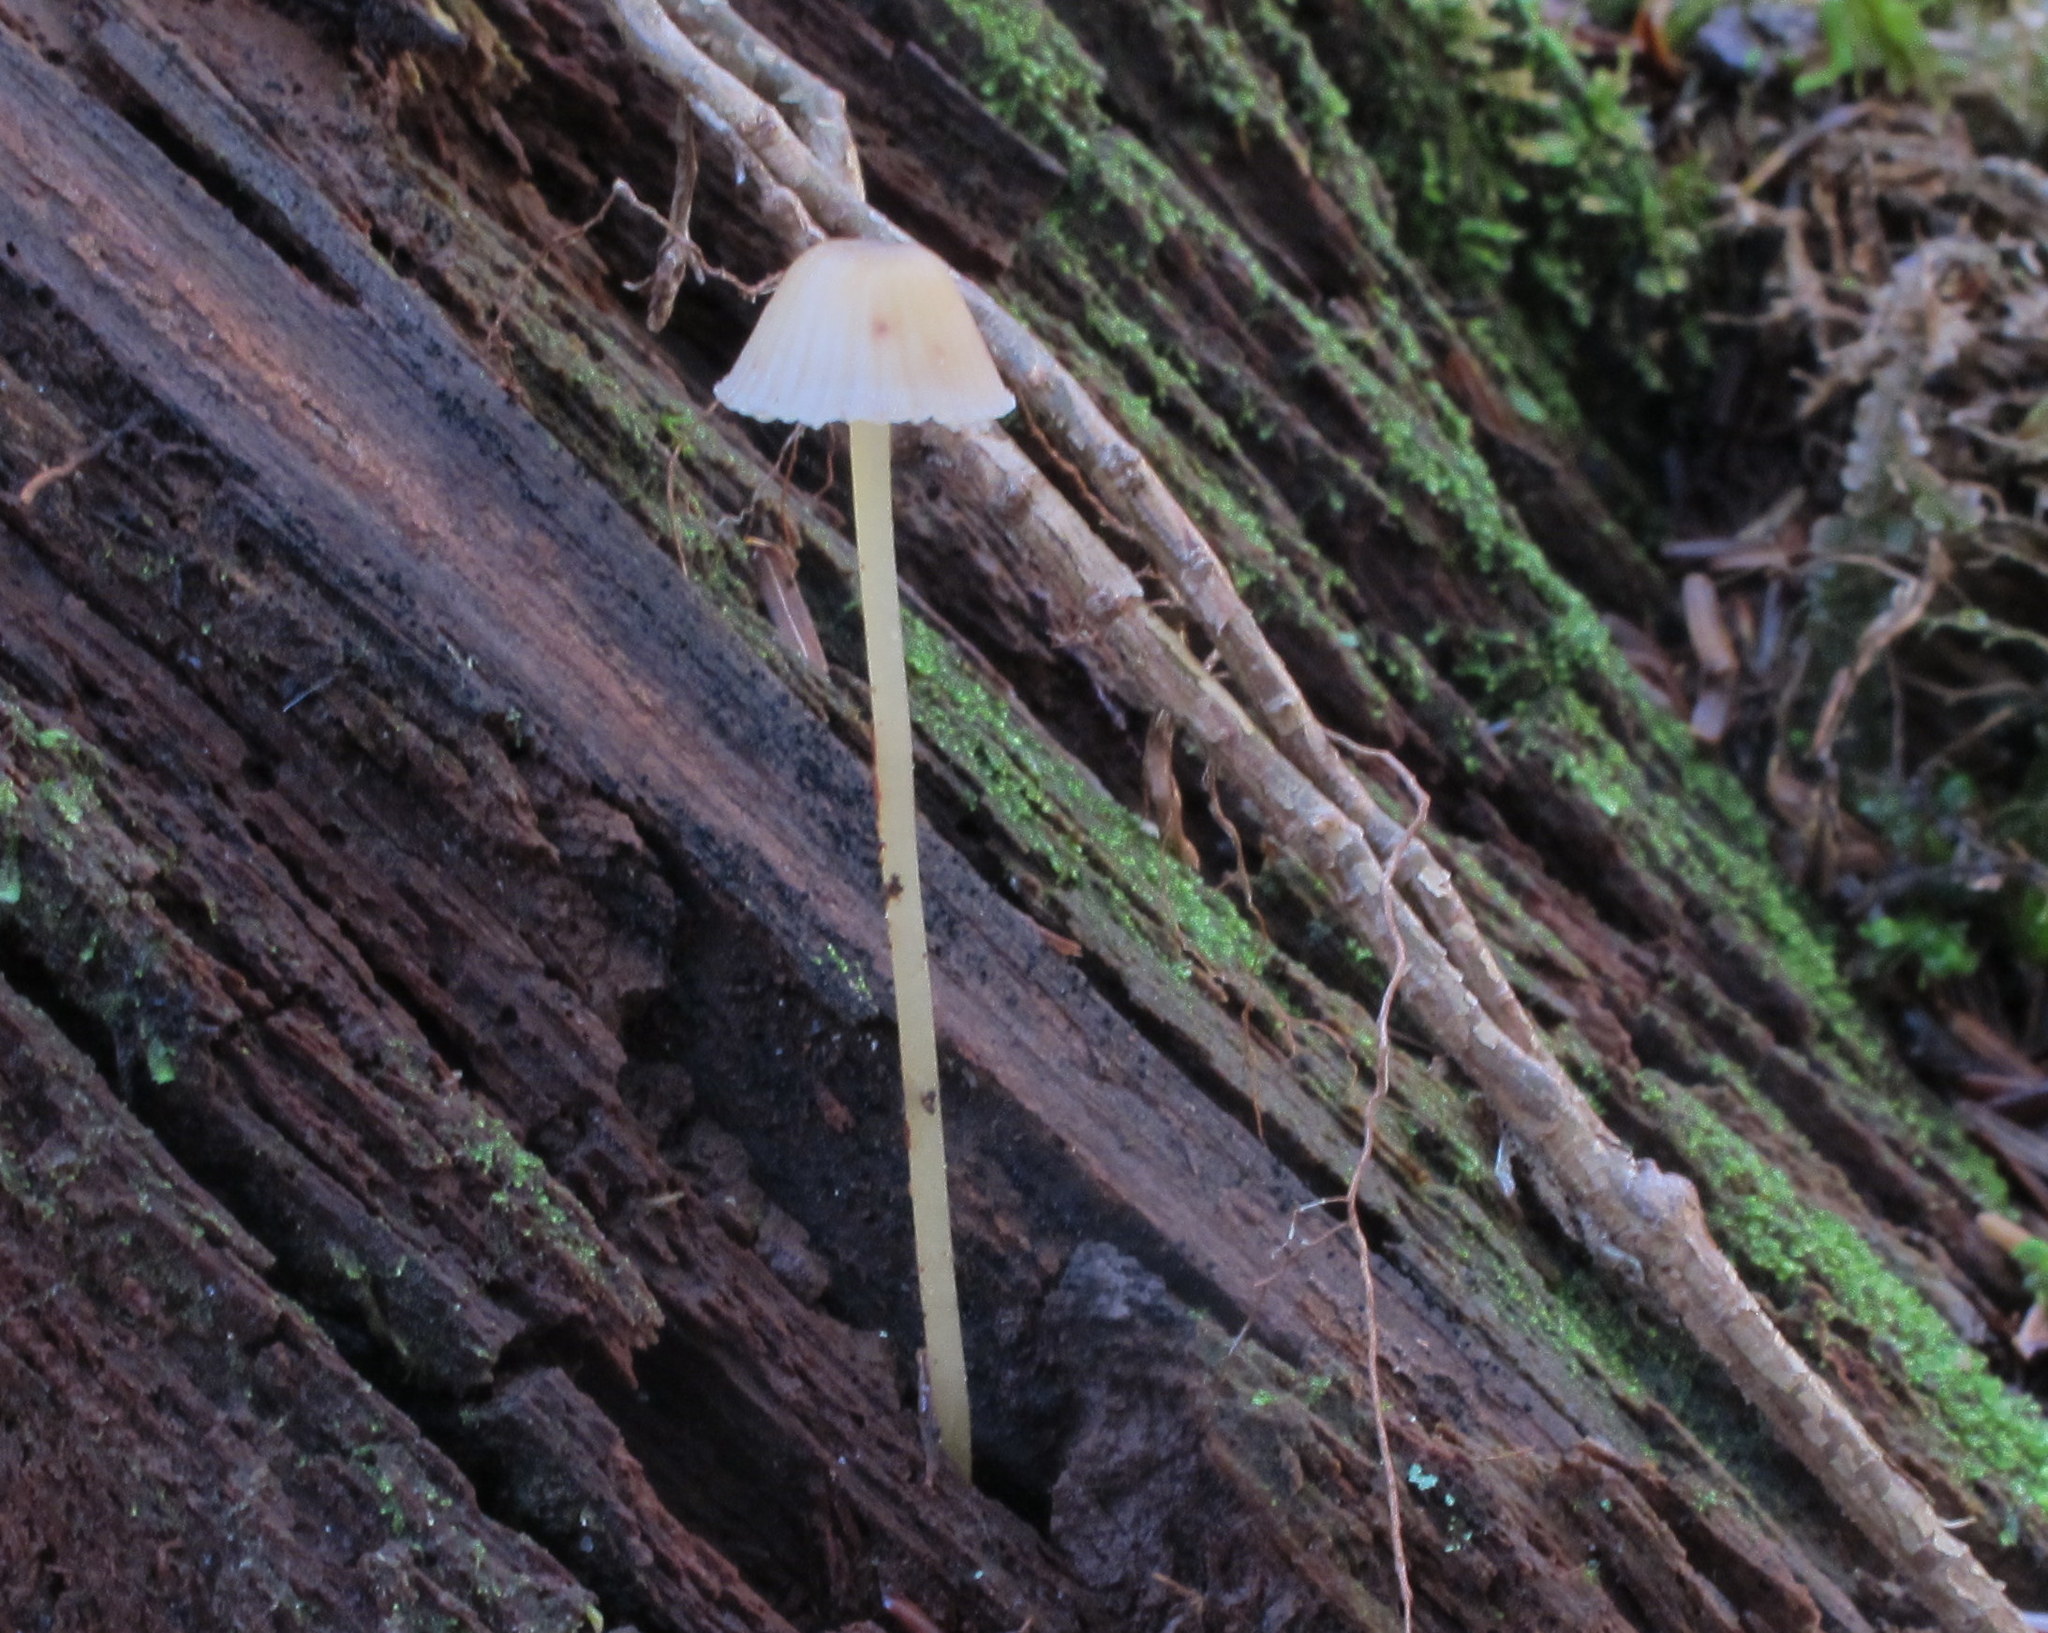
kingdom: Fungi
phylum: Basidiomycota
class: Agaricomycetes
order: Agaricales
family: Mycenaceae
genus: Mycena
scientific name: Mycena epipterygia
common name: Yellowleg bonnet
